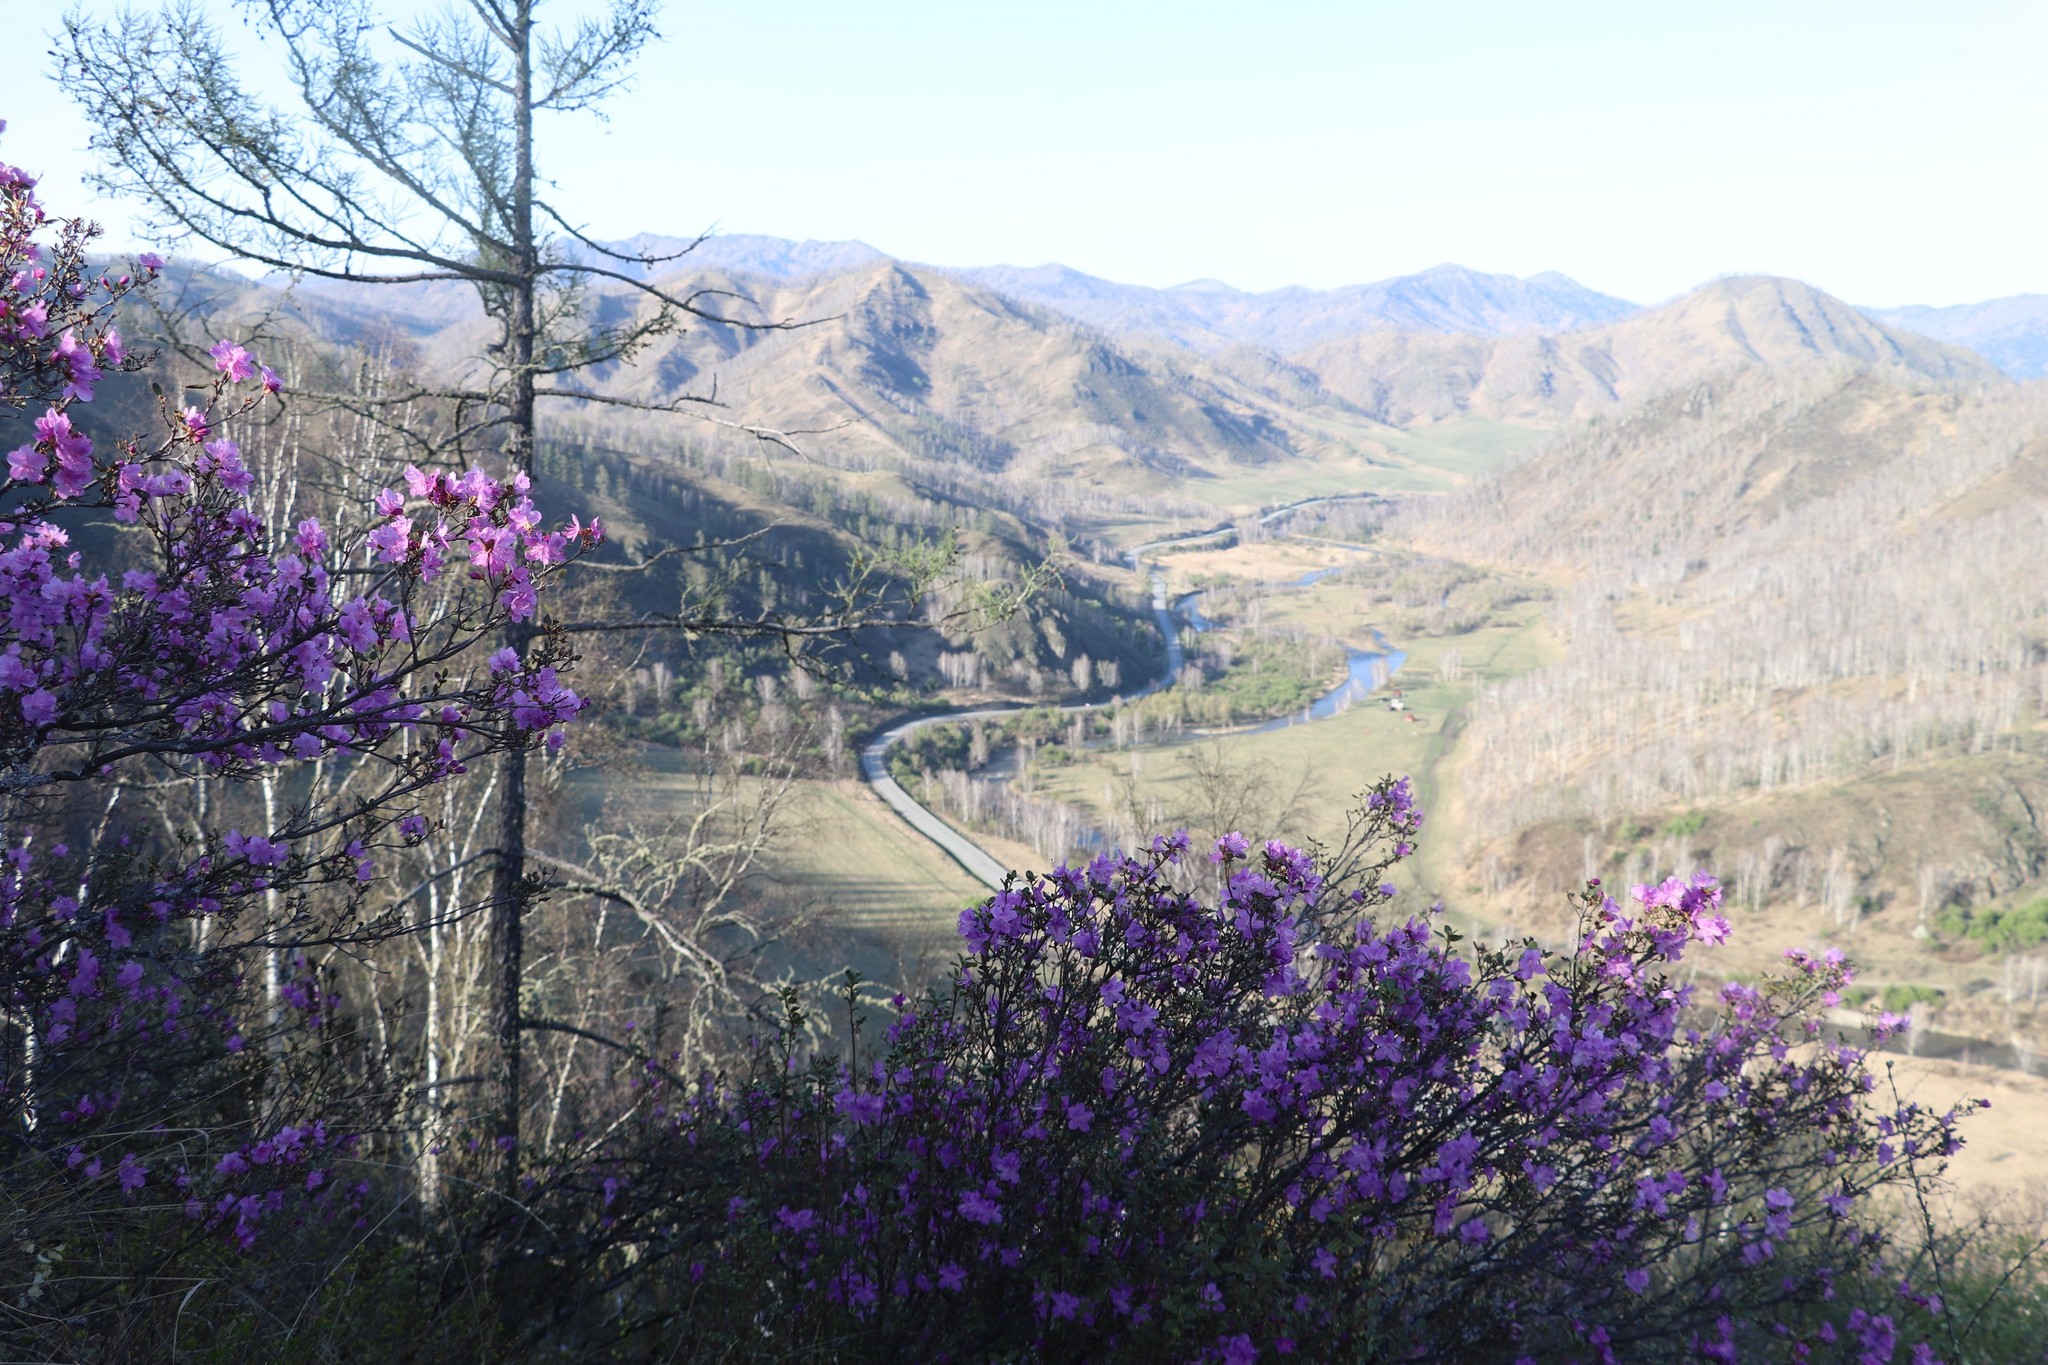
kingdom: Plantae
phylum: Tracheophyta
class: Magnoliopsida
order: Ericales
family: Ericaceae
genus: Rhododendron
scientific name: Rhododendron dauricum
